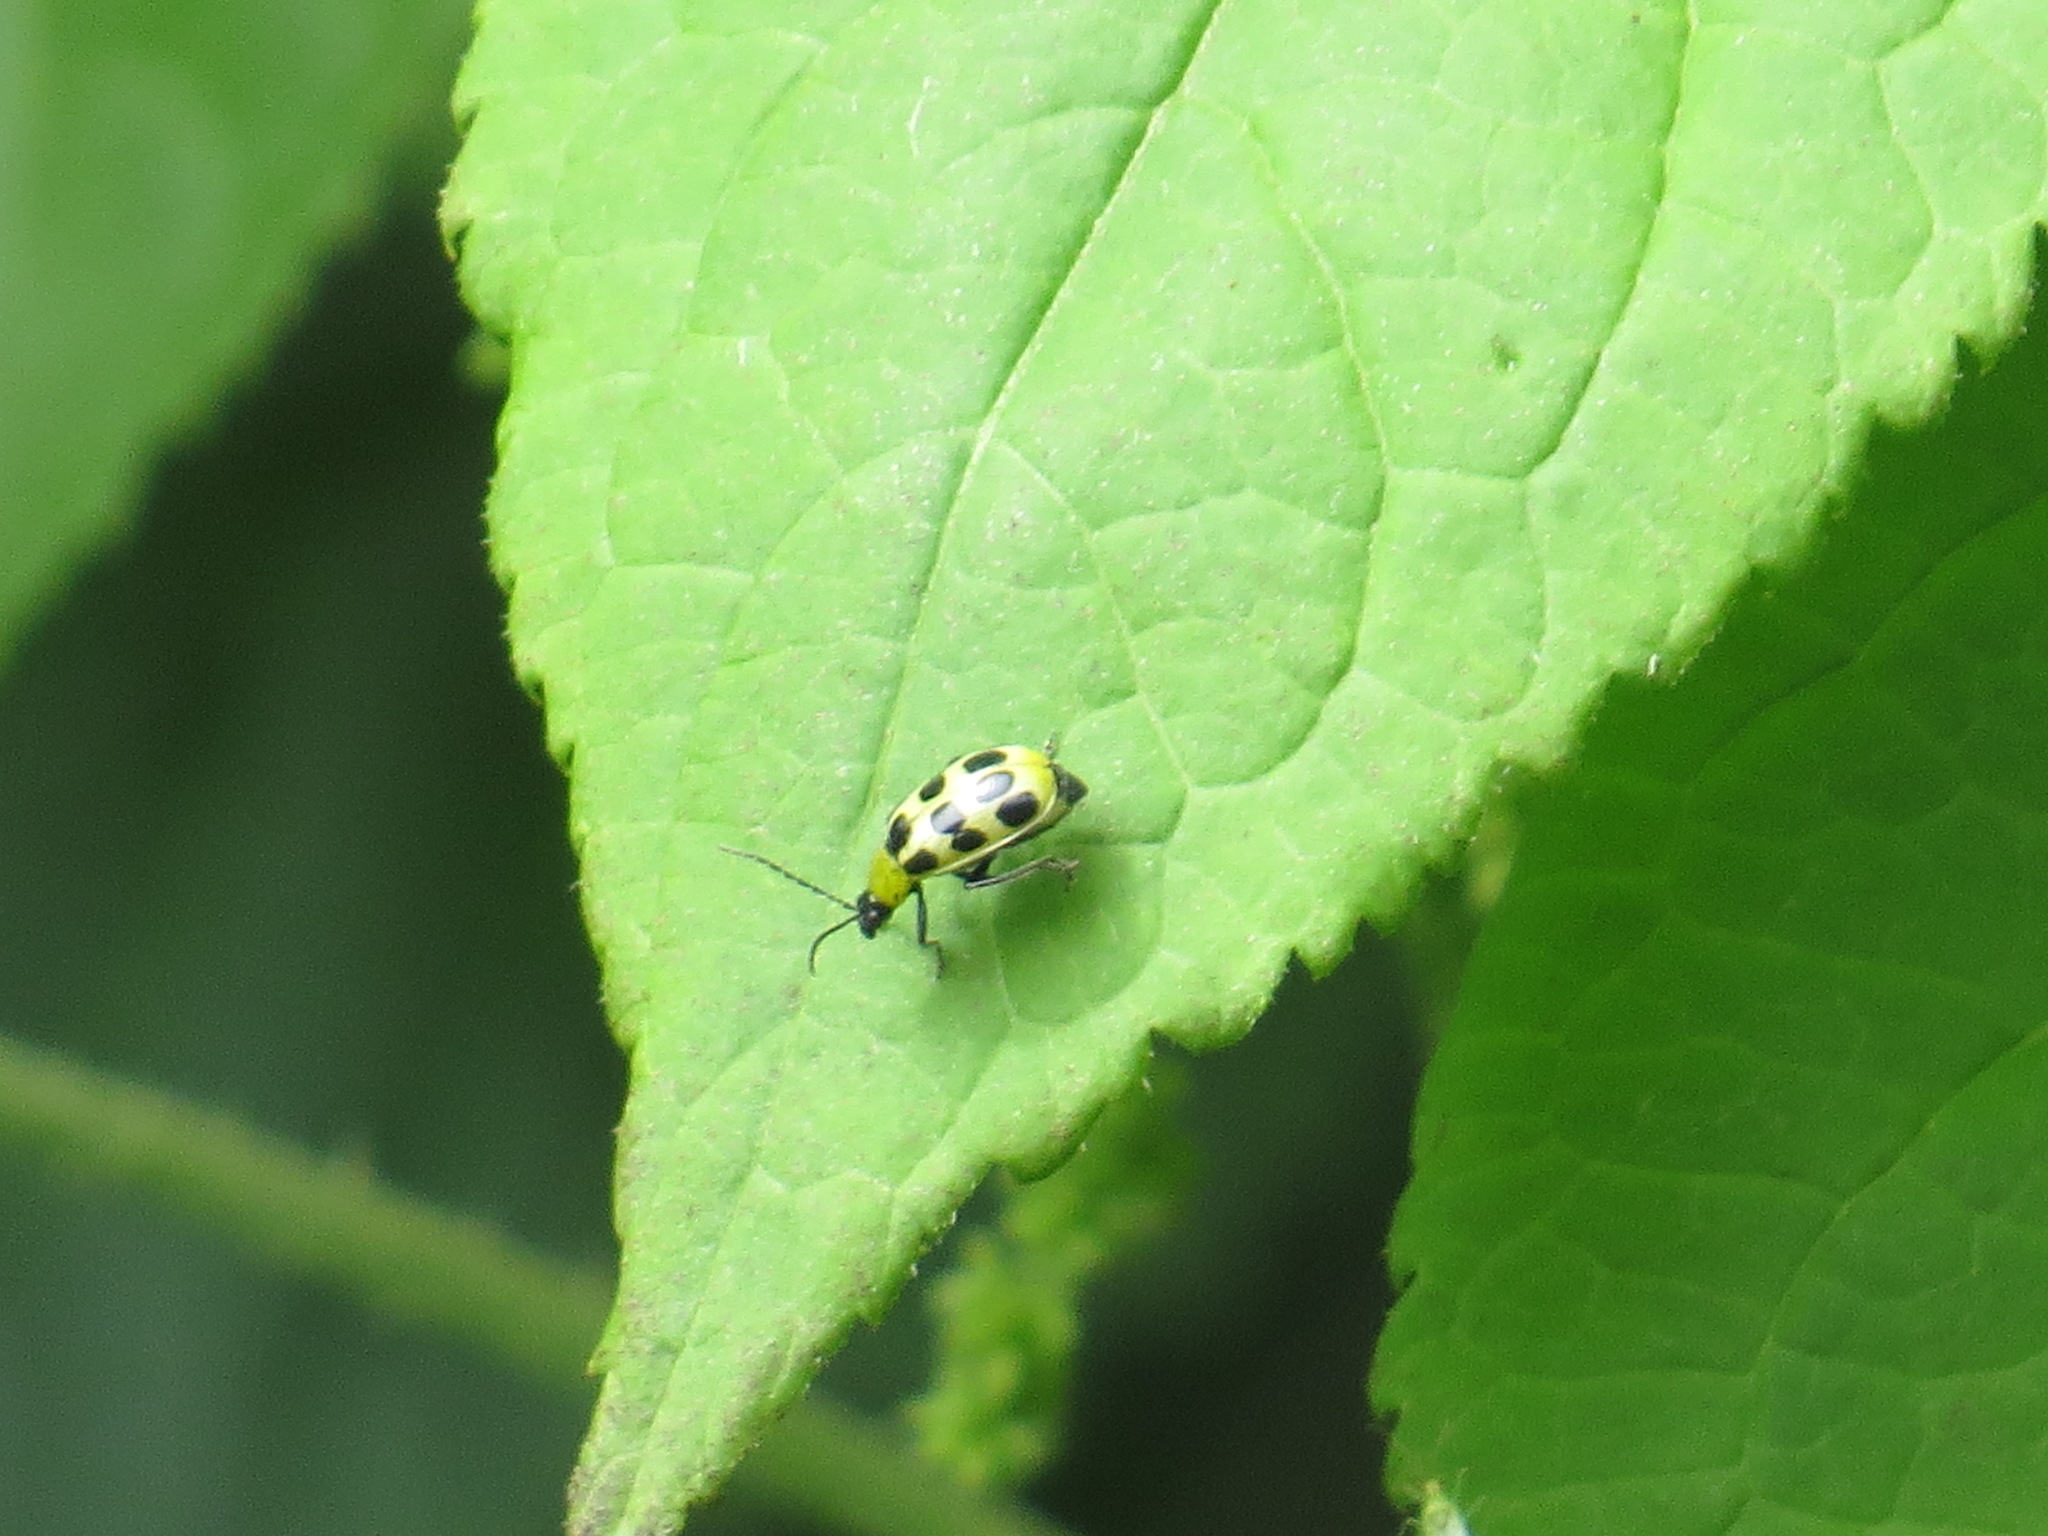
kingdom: Animalia
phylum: Arthropoda
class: Insecta
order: Coleoptera
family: Chrysomelidae
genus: Diabrotica
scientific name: Diabrotica undecimpunctata
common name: Spotted cucumber beetle
